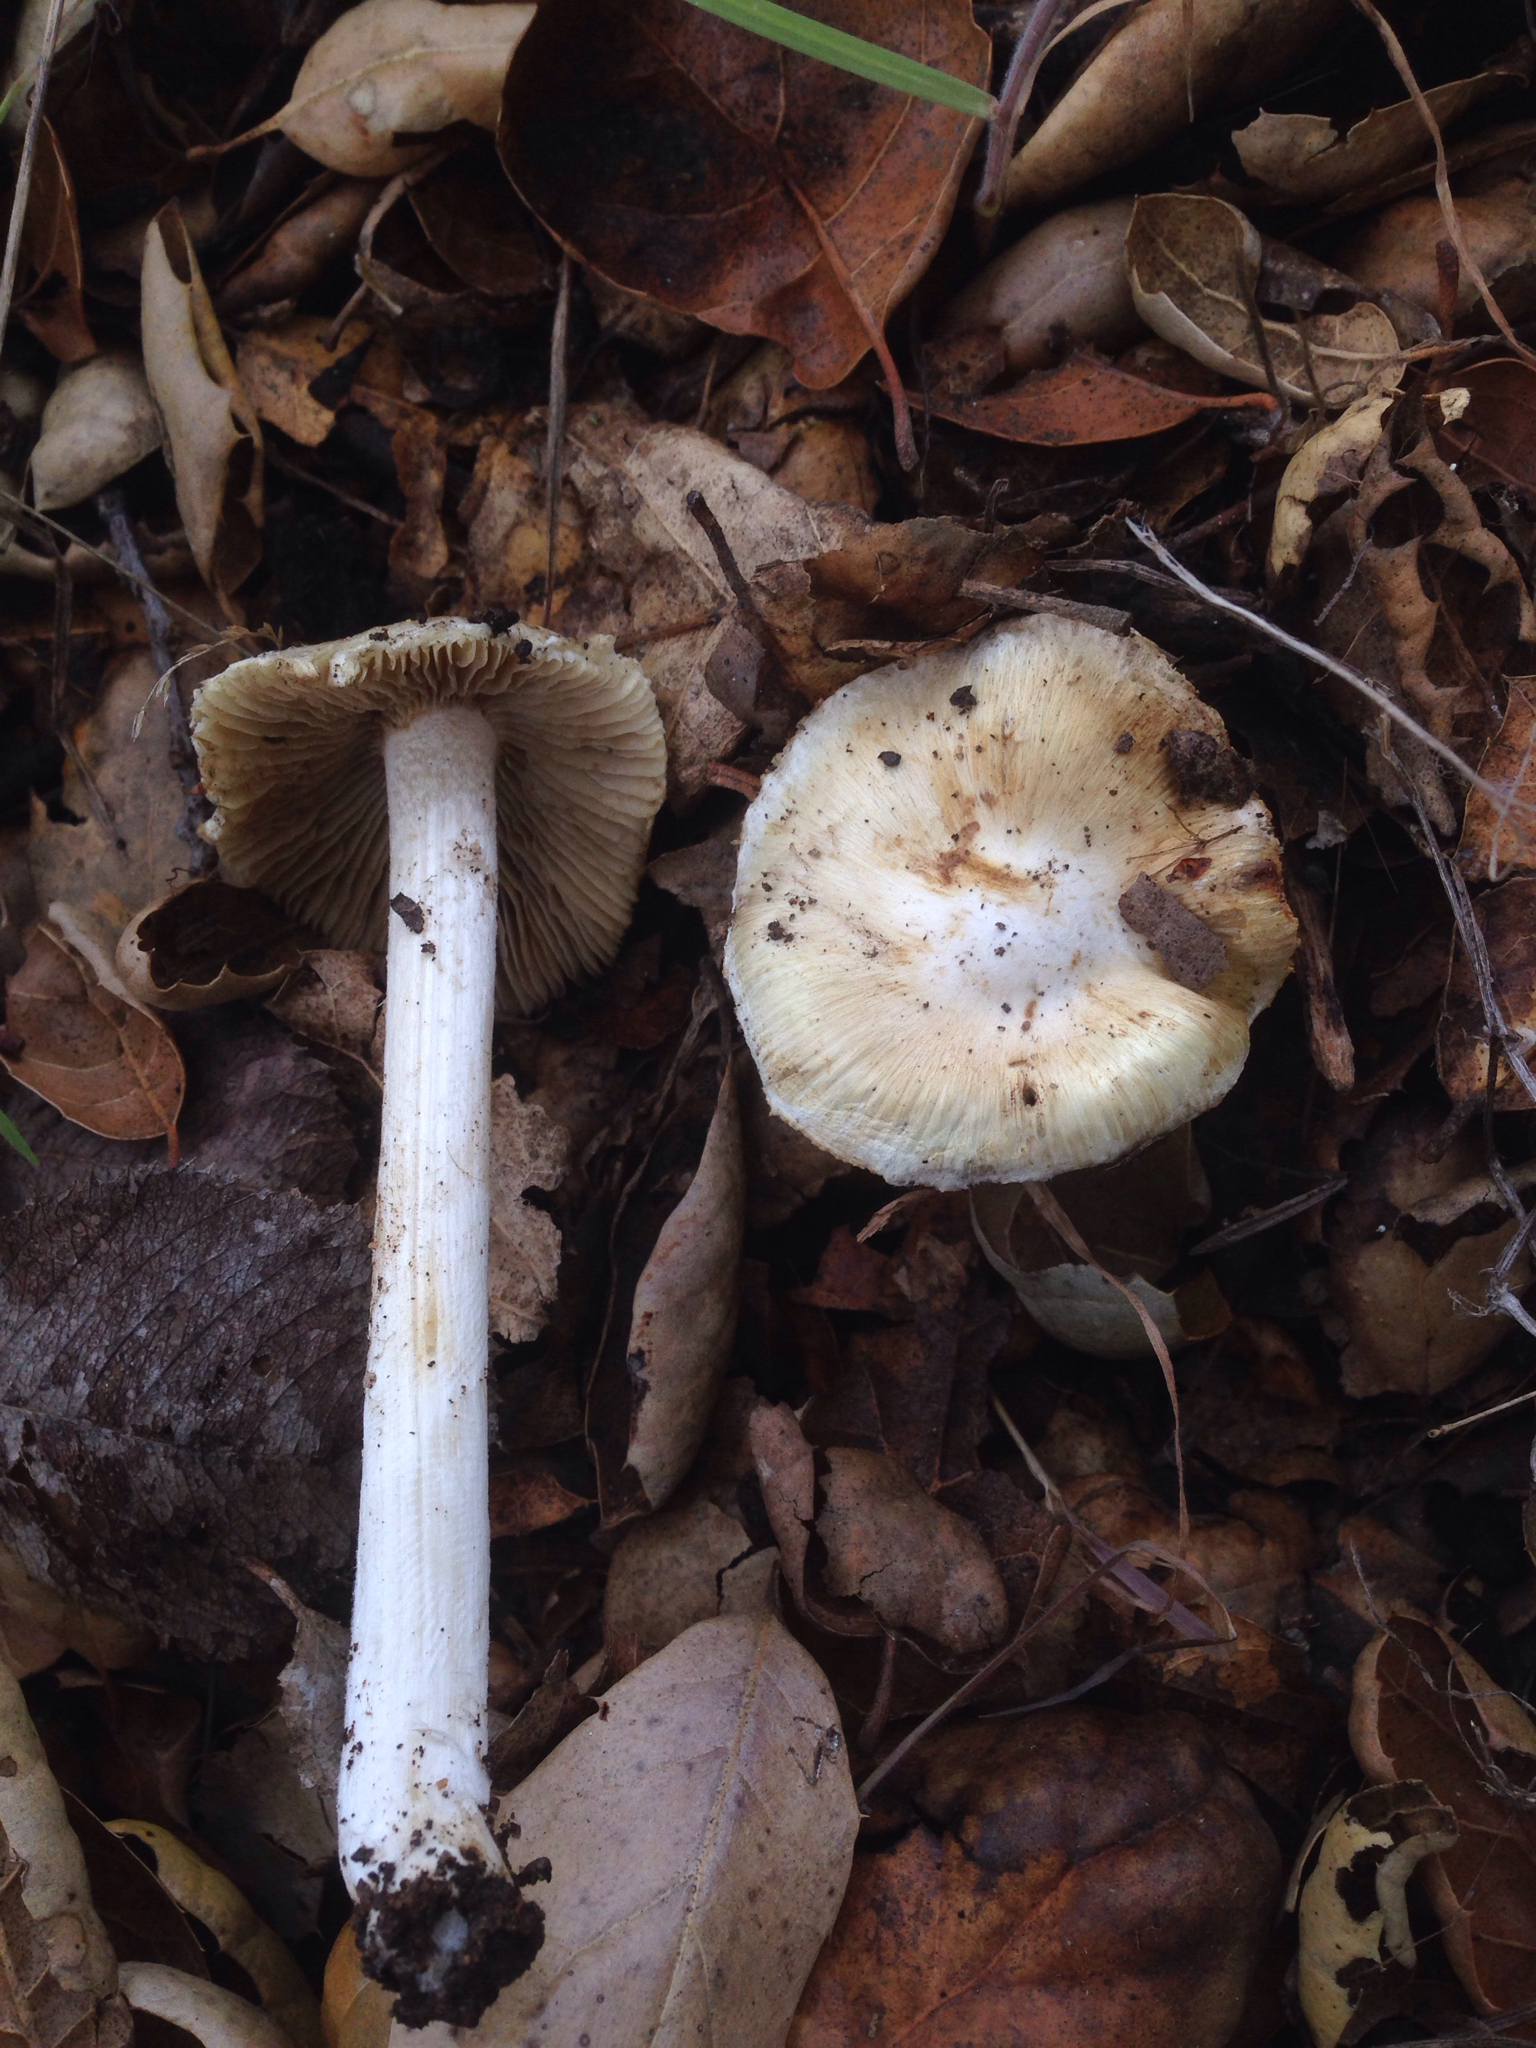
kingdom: Fungi
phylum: Basidiomycota
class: Agaricomycetes
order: Agaricales
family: Inocybaceae
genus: Pseudosperma
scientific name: Pseudosperma sororium
